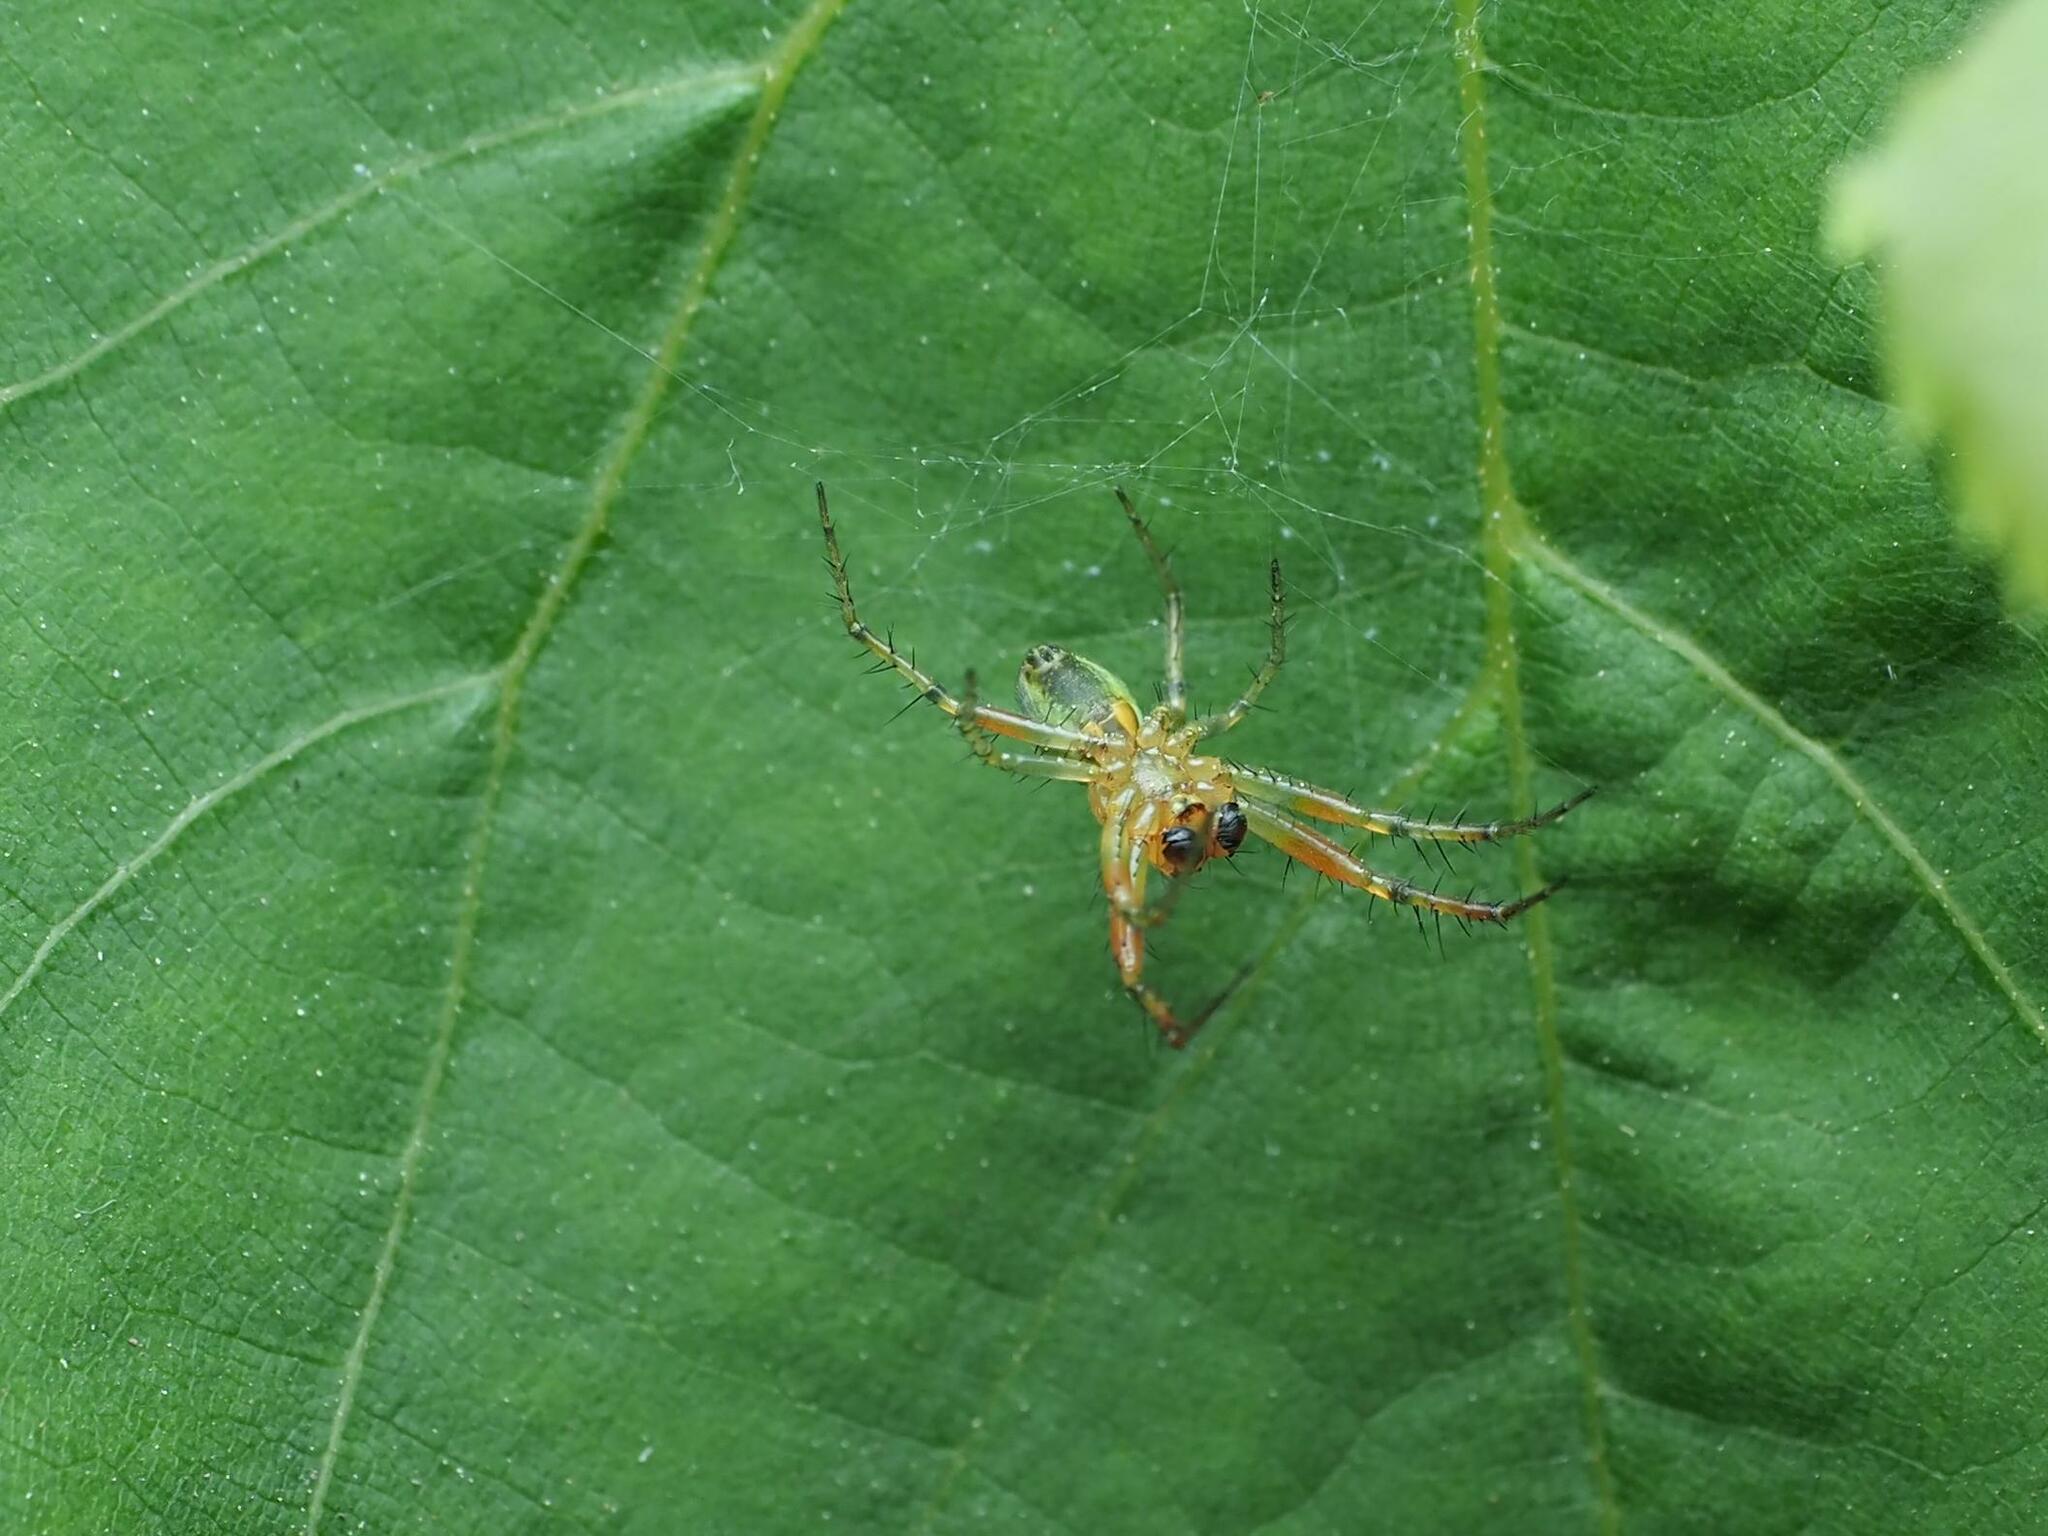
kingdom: Animalia
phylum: Arthropoda
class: Arachnida
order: Araneae
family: Araneidae
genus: Araniella
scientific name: Araniella
